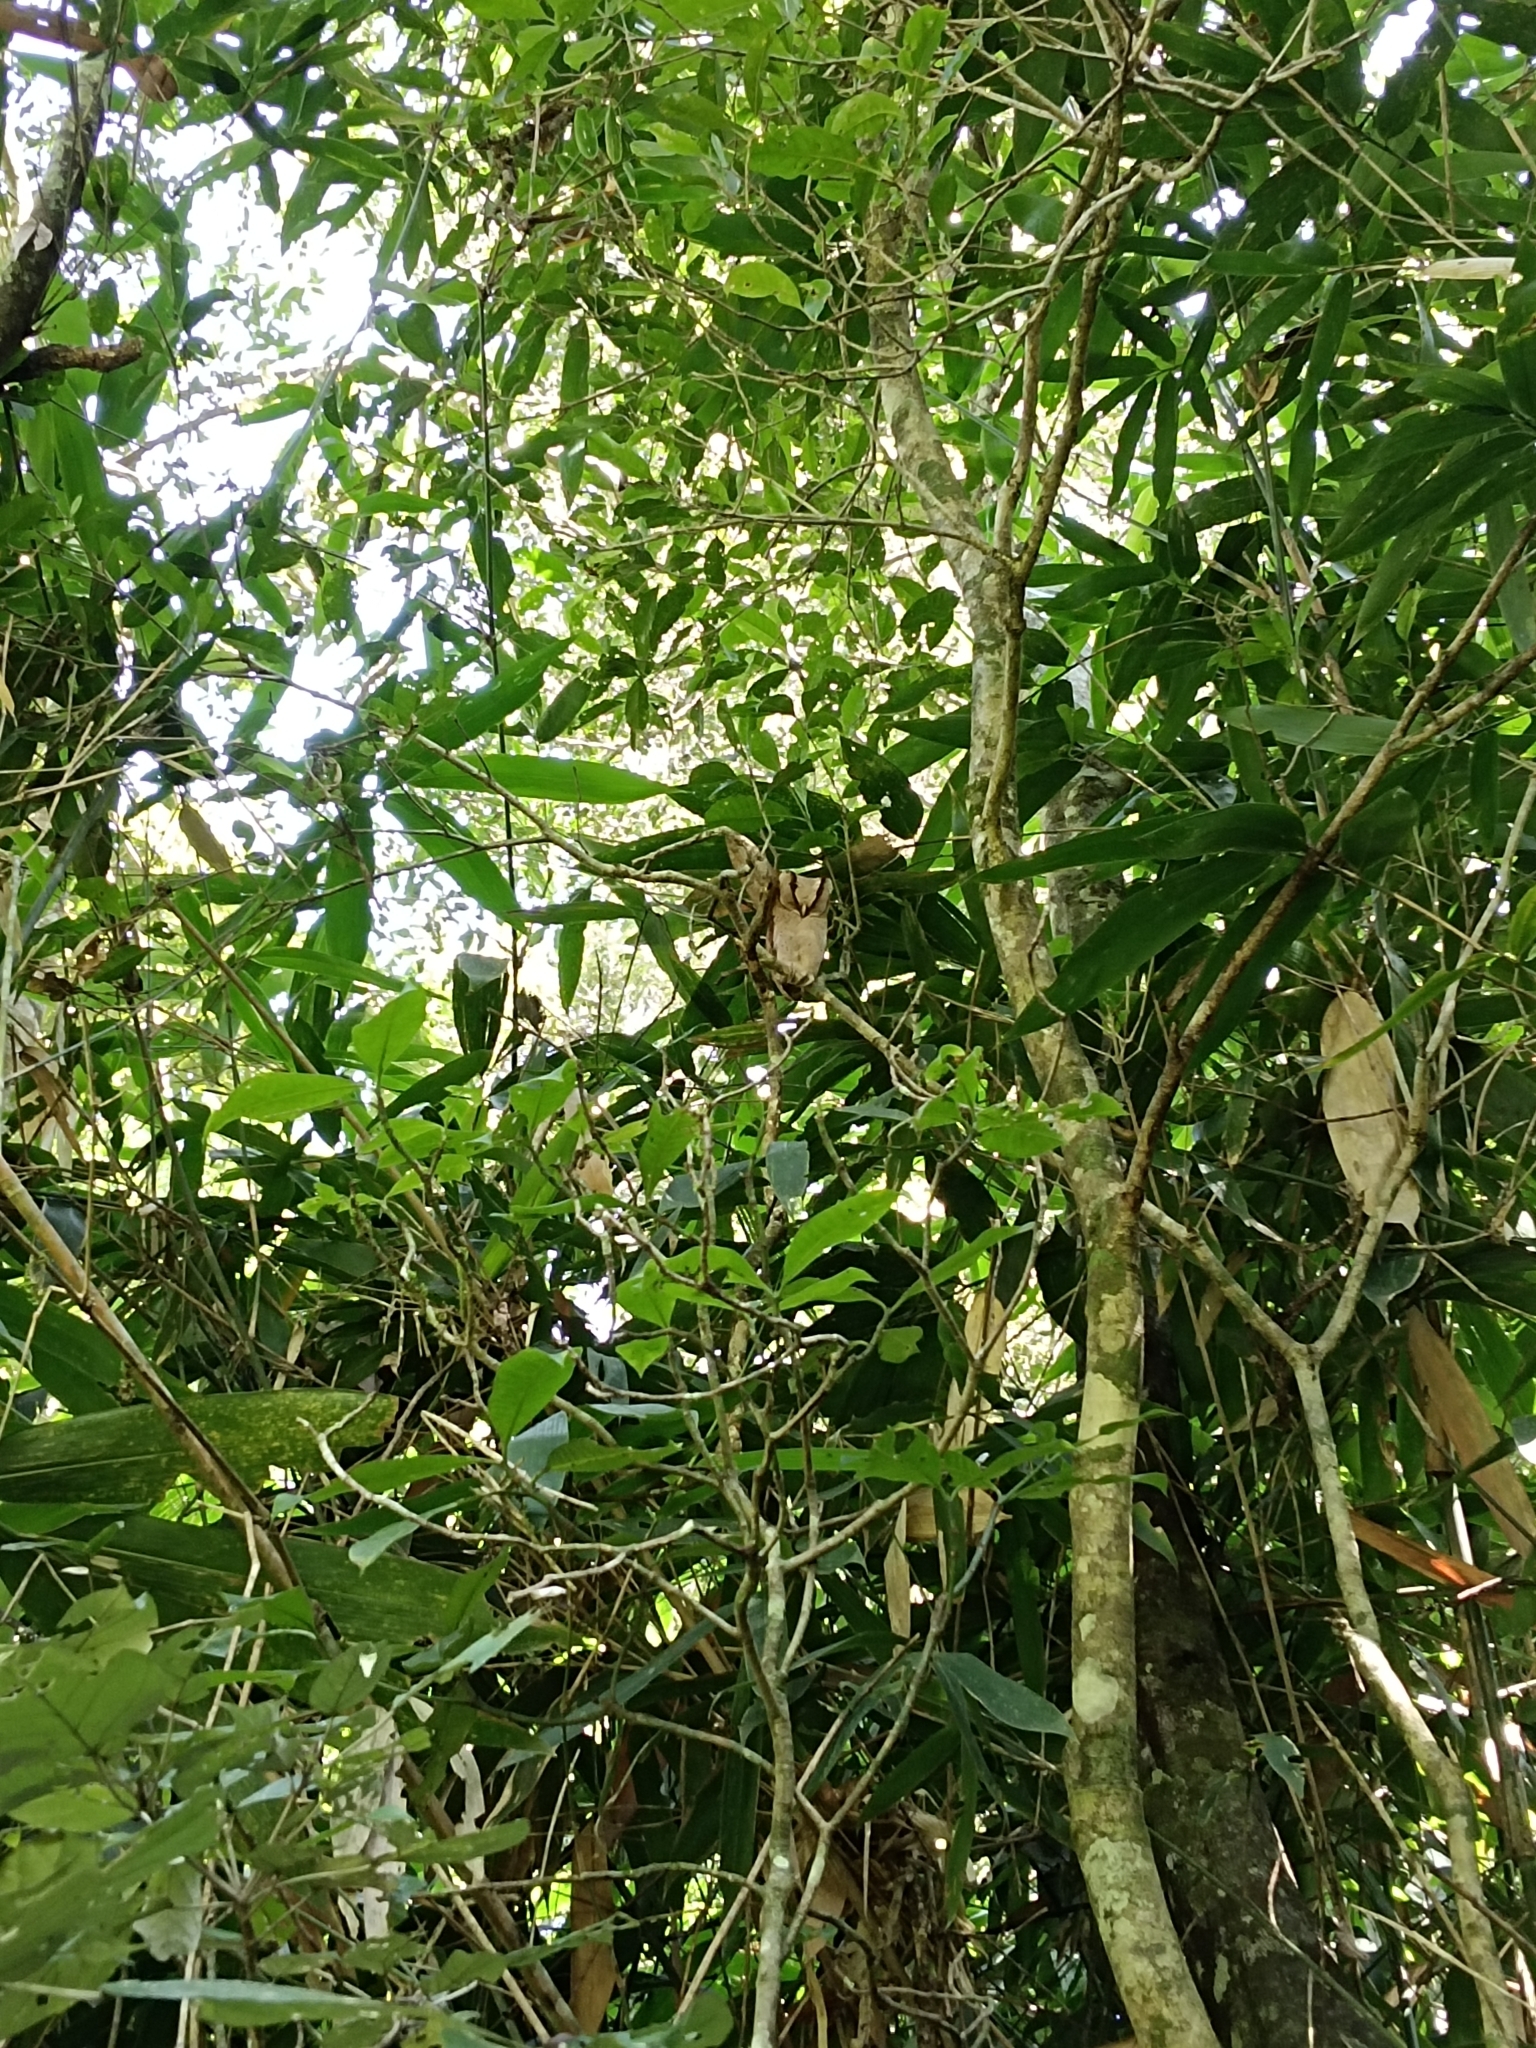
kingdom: Animalia
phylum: Chordata
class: Aves
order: Strigiformes
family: Tytonidae
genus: Phodilus
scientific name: Phodilus assimilis
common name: Sri lanka bay-owl
